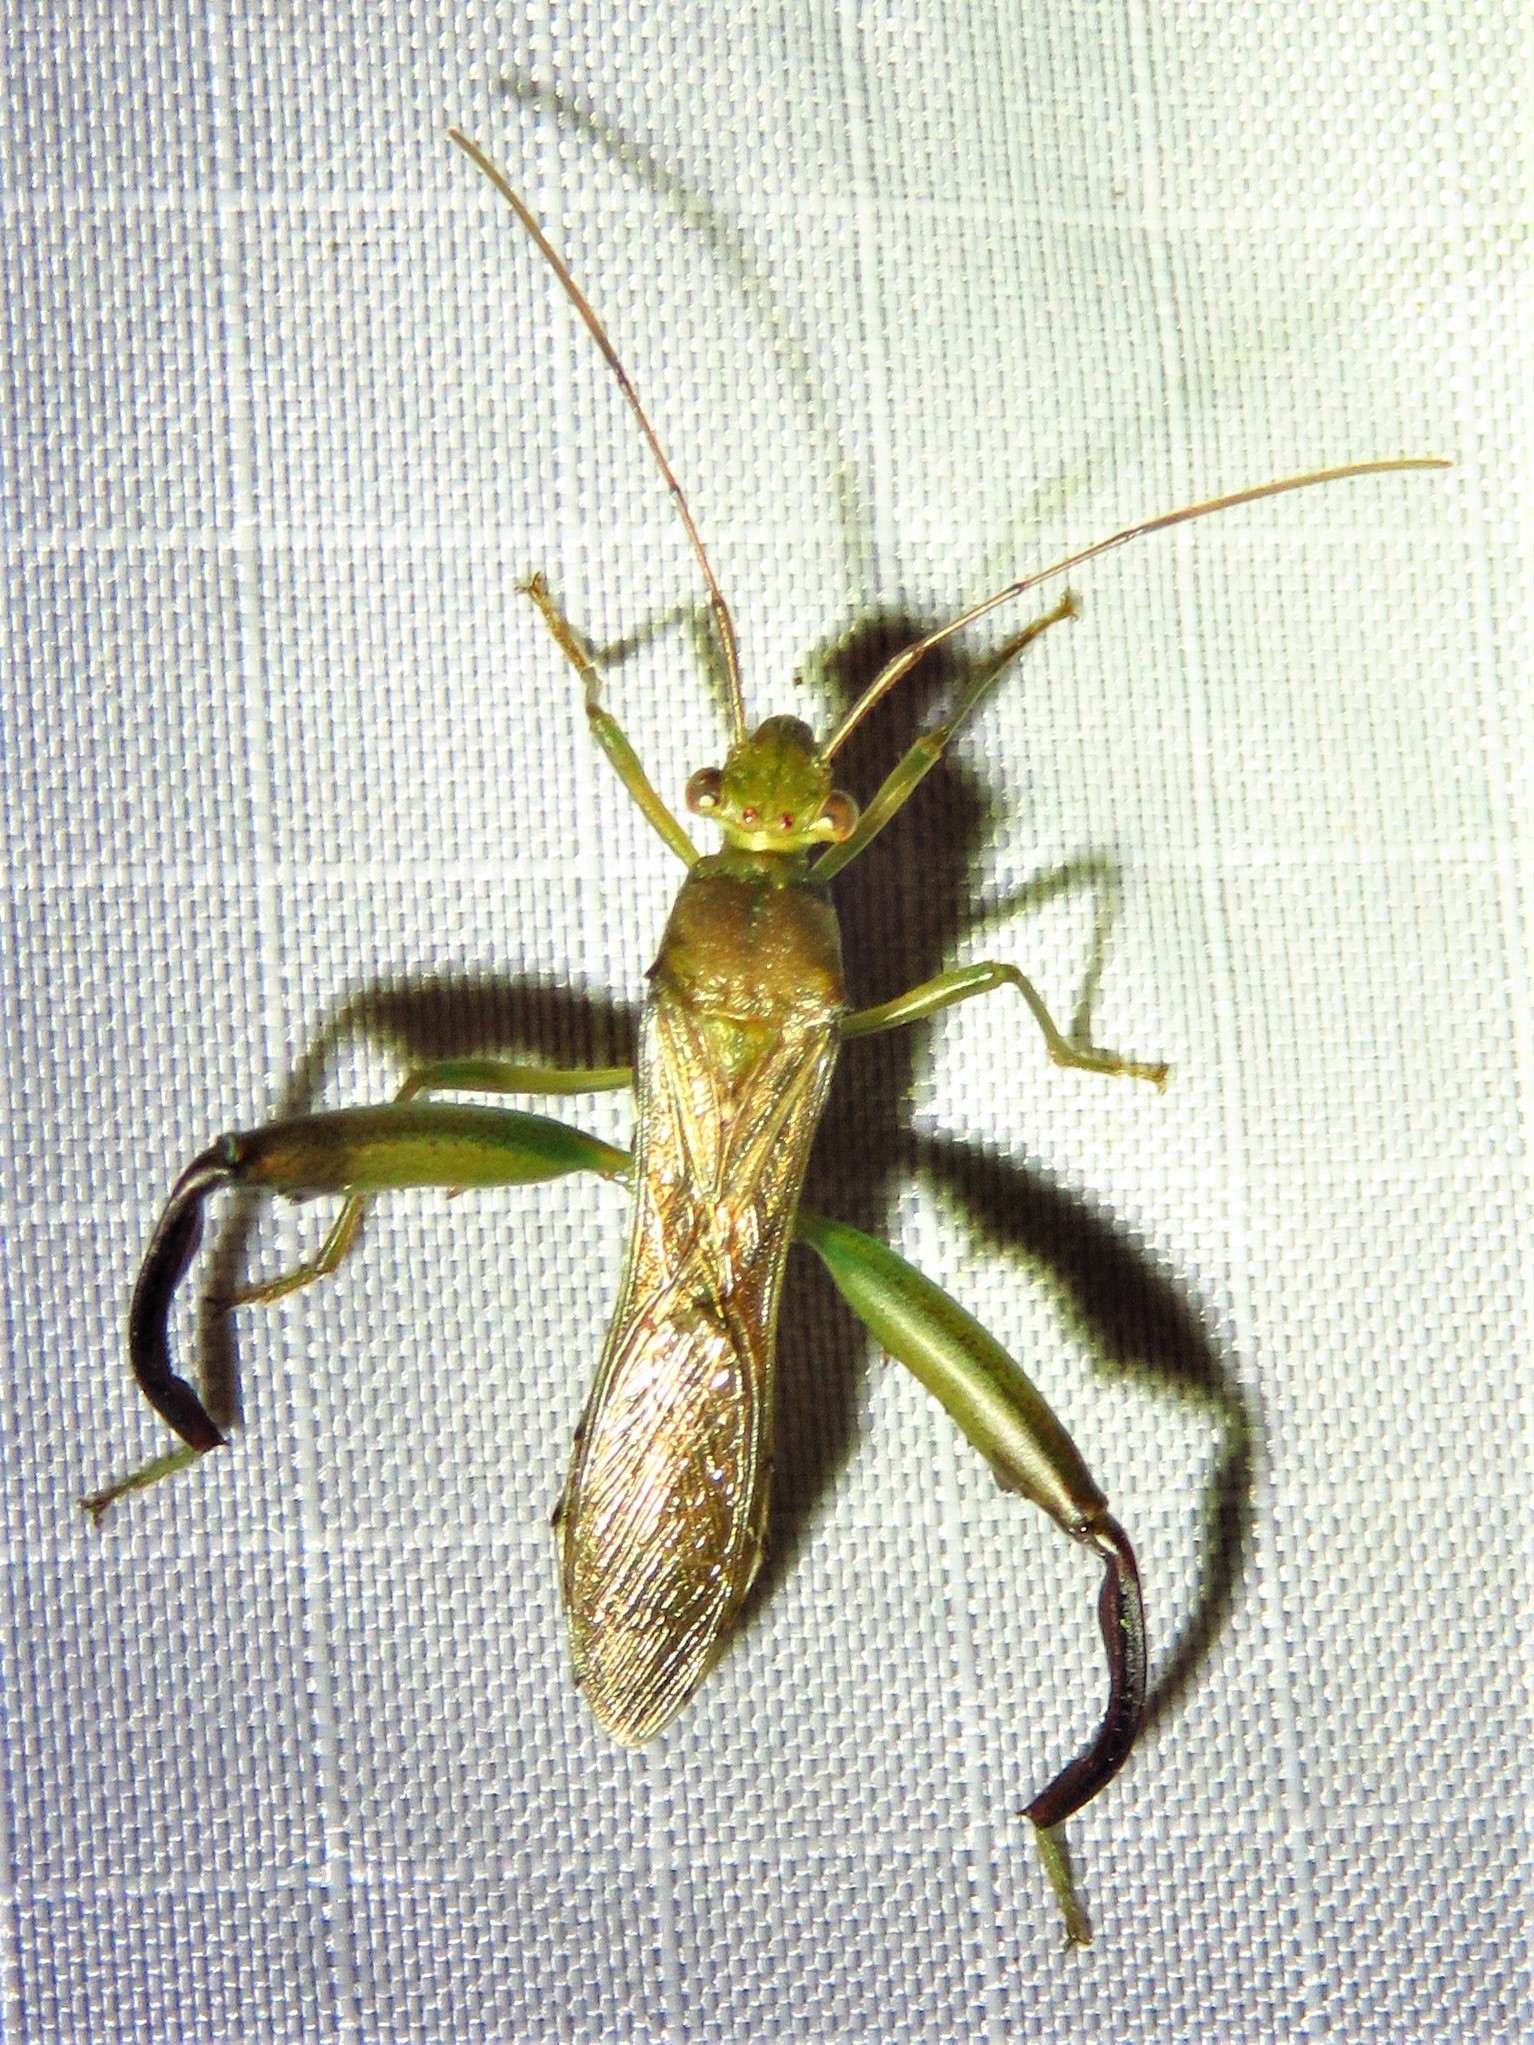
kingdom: Animalia
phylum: Arthropoda
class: Insecta
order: Hemiptera
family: Alydidae
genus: Hyalymenus
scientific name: Hyalymenus tarsatus
